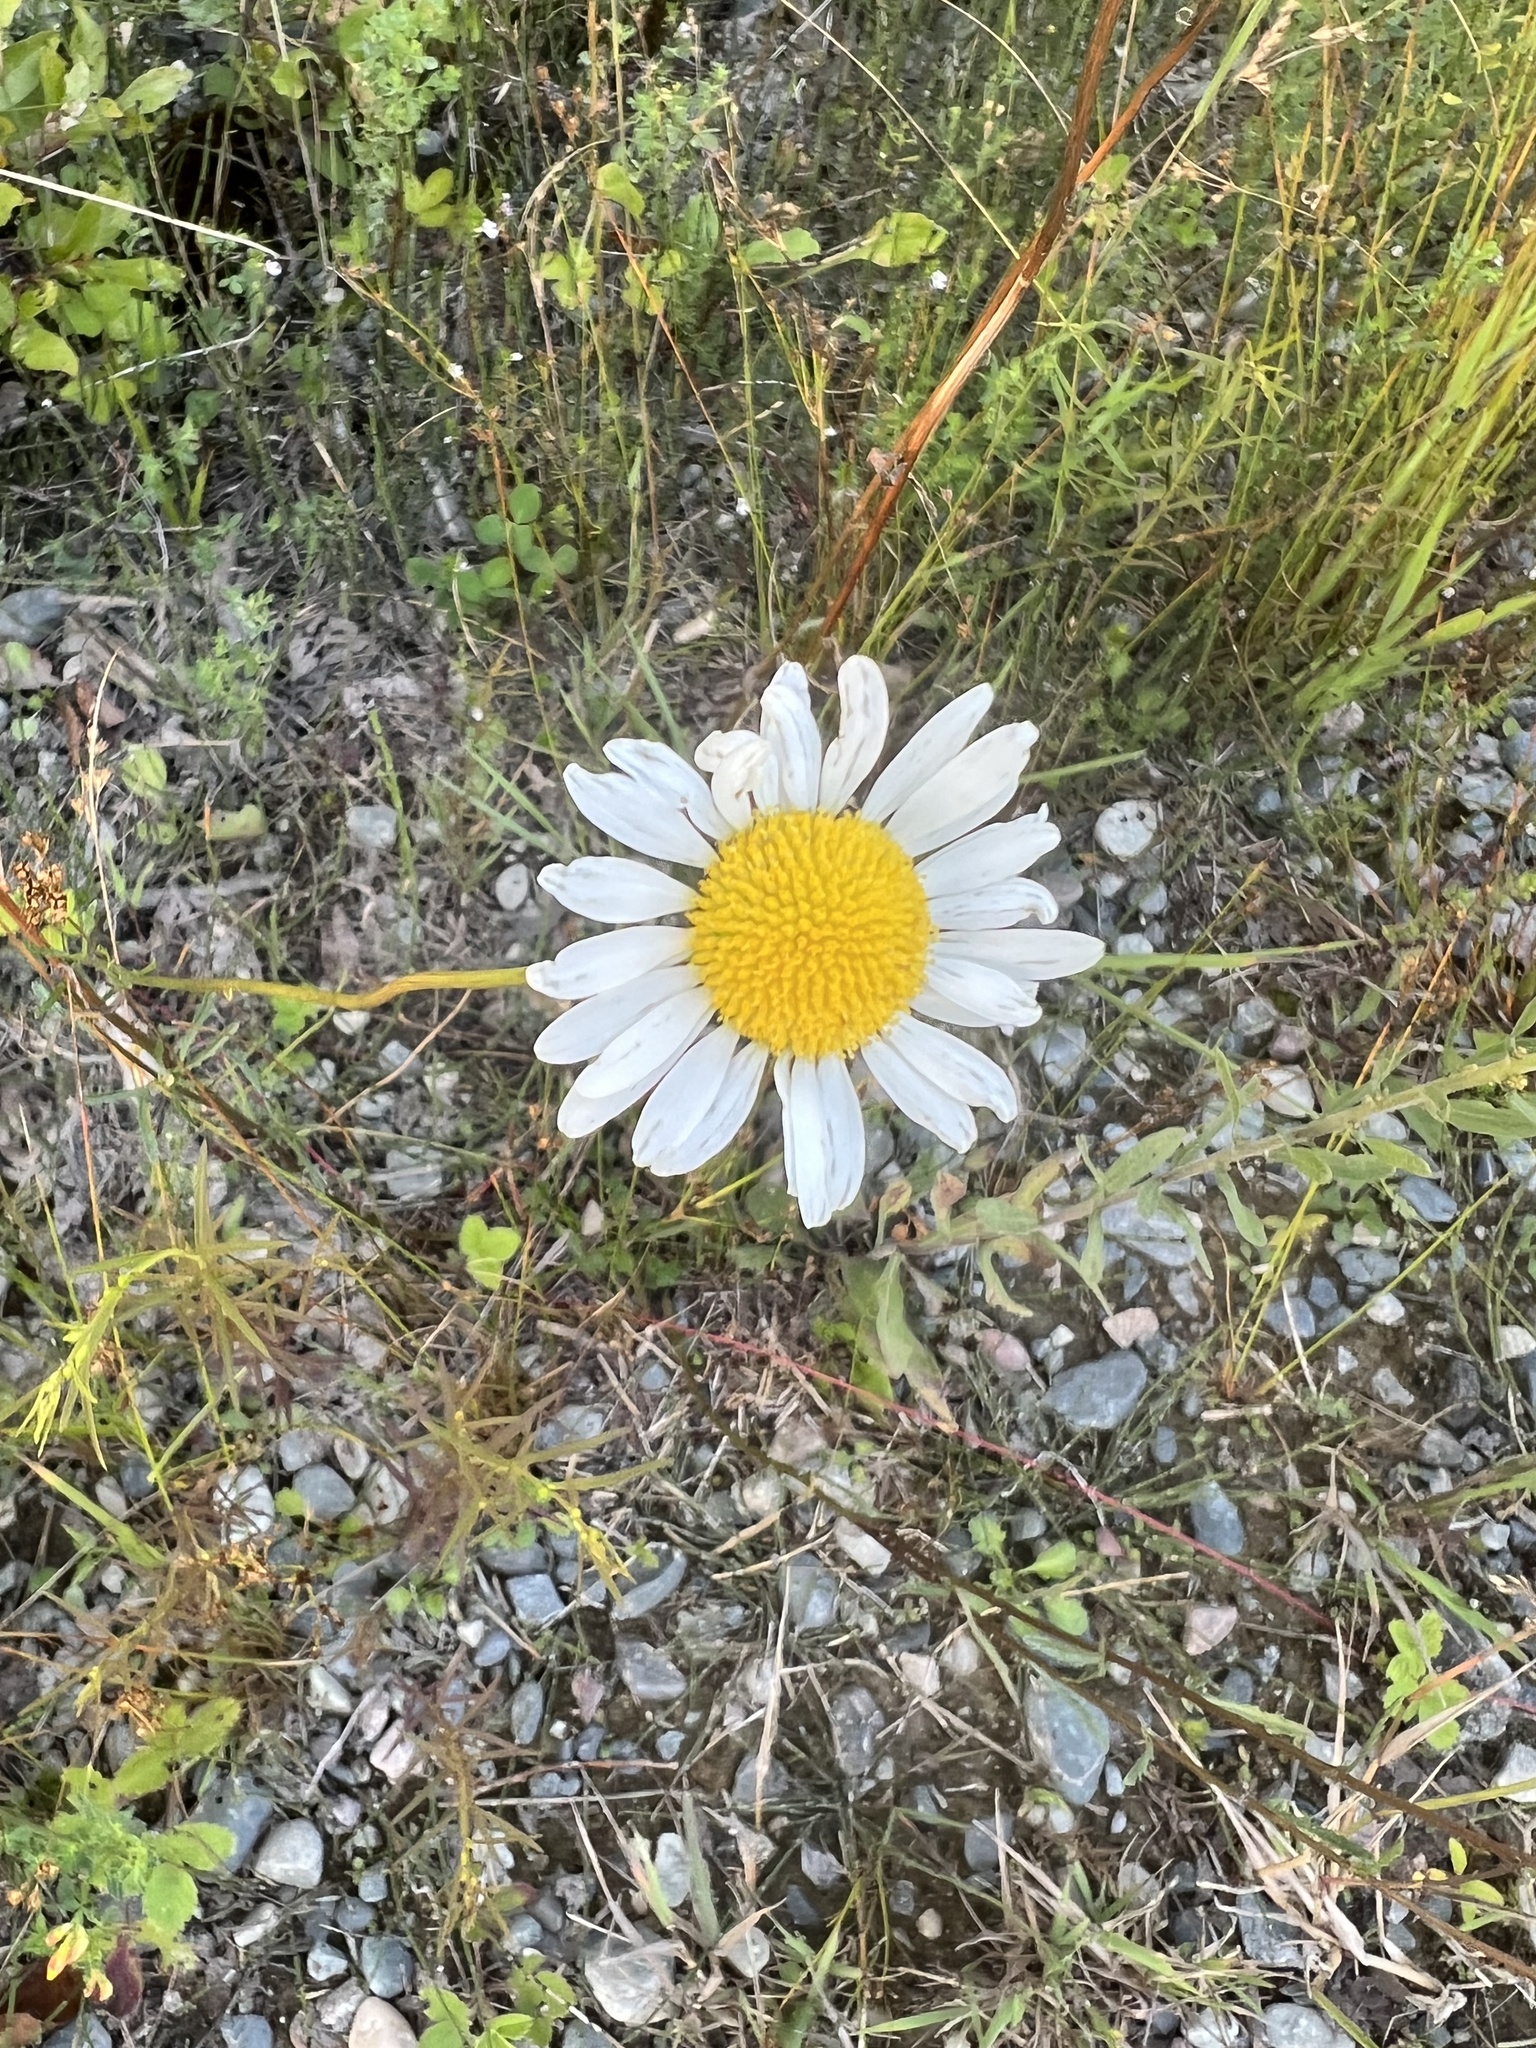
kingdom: Plantae
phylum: Tracheophyta
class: Magnoliopsida
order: Asterales
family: Asteraceae
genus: Leucanthemum
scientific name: Leucanthemum vulgare
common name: Oxeye daisy
